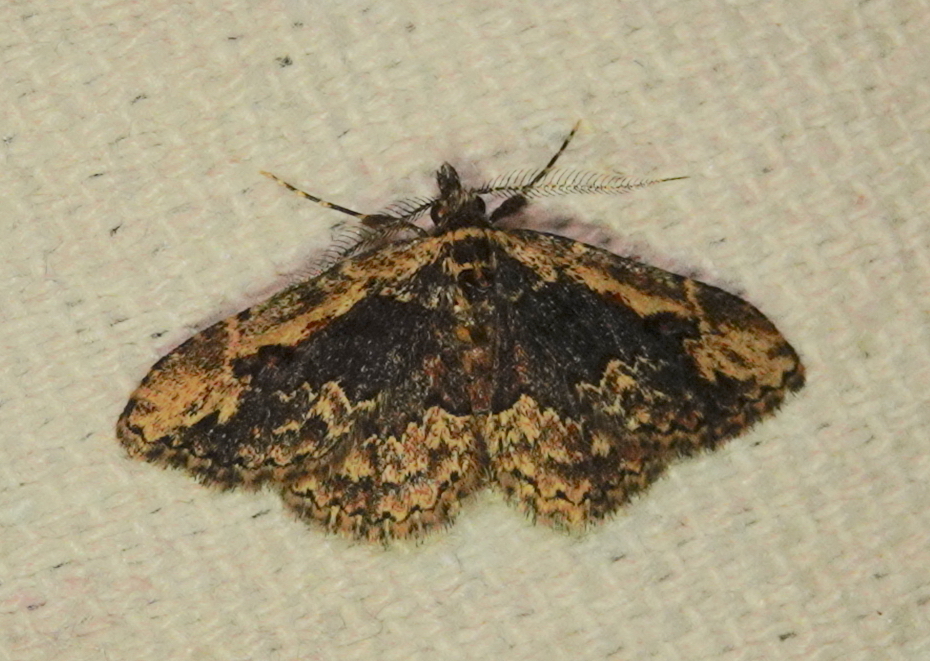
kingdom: Animalia
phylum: Arthropoda
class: Insecta
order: Lepidoptera
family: Erebidae
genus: Parascotia
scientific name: Parascotia nisseni
